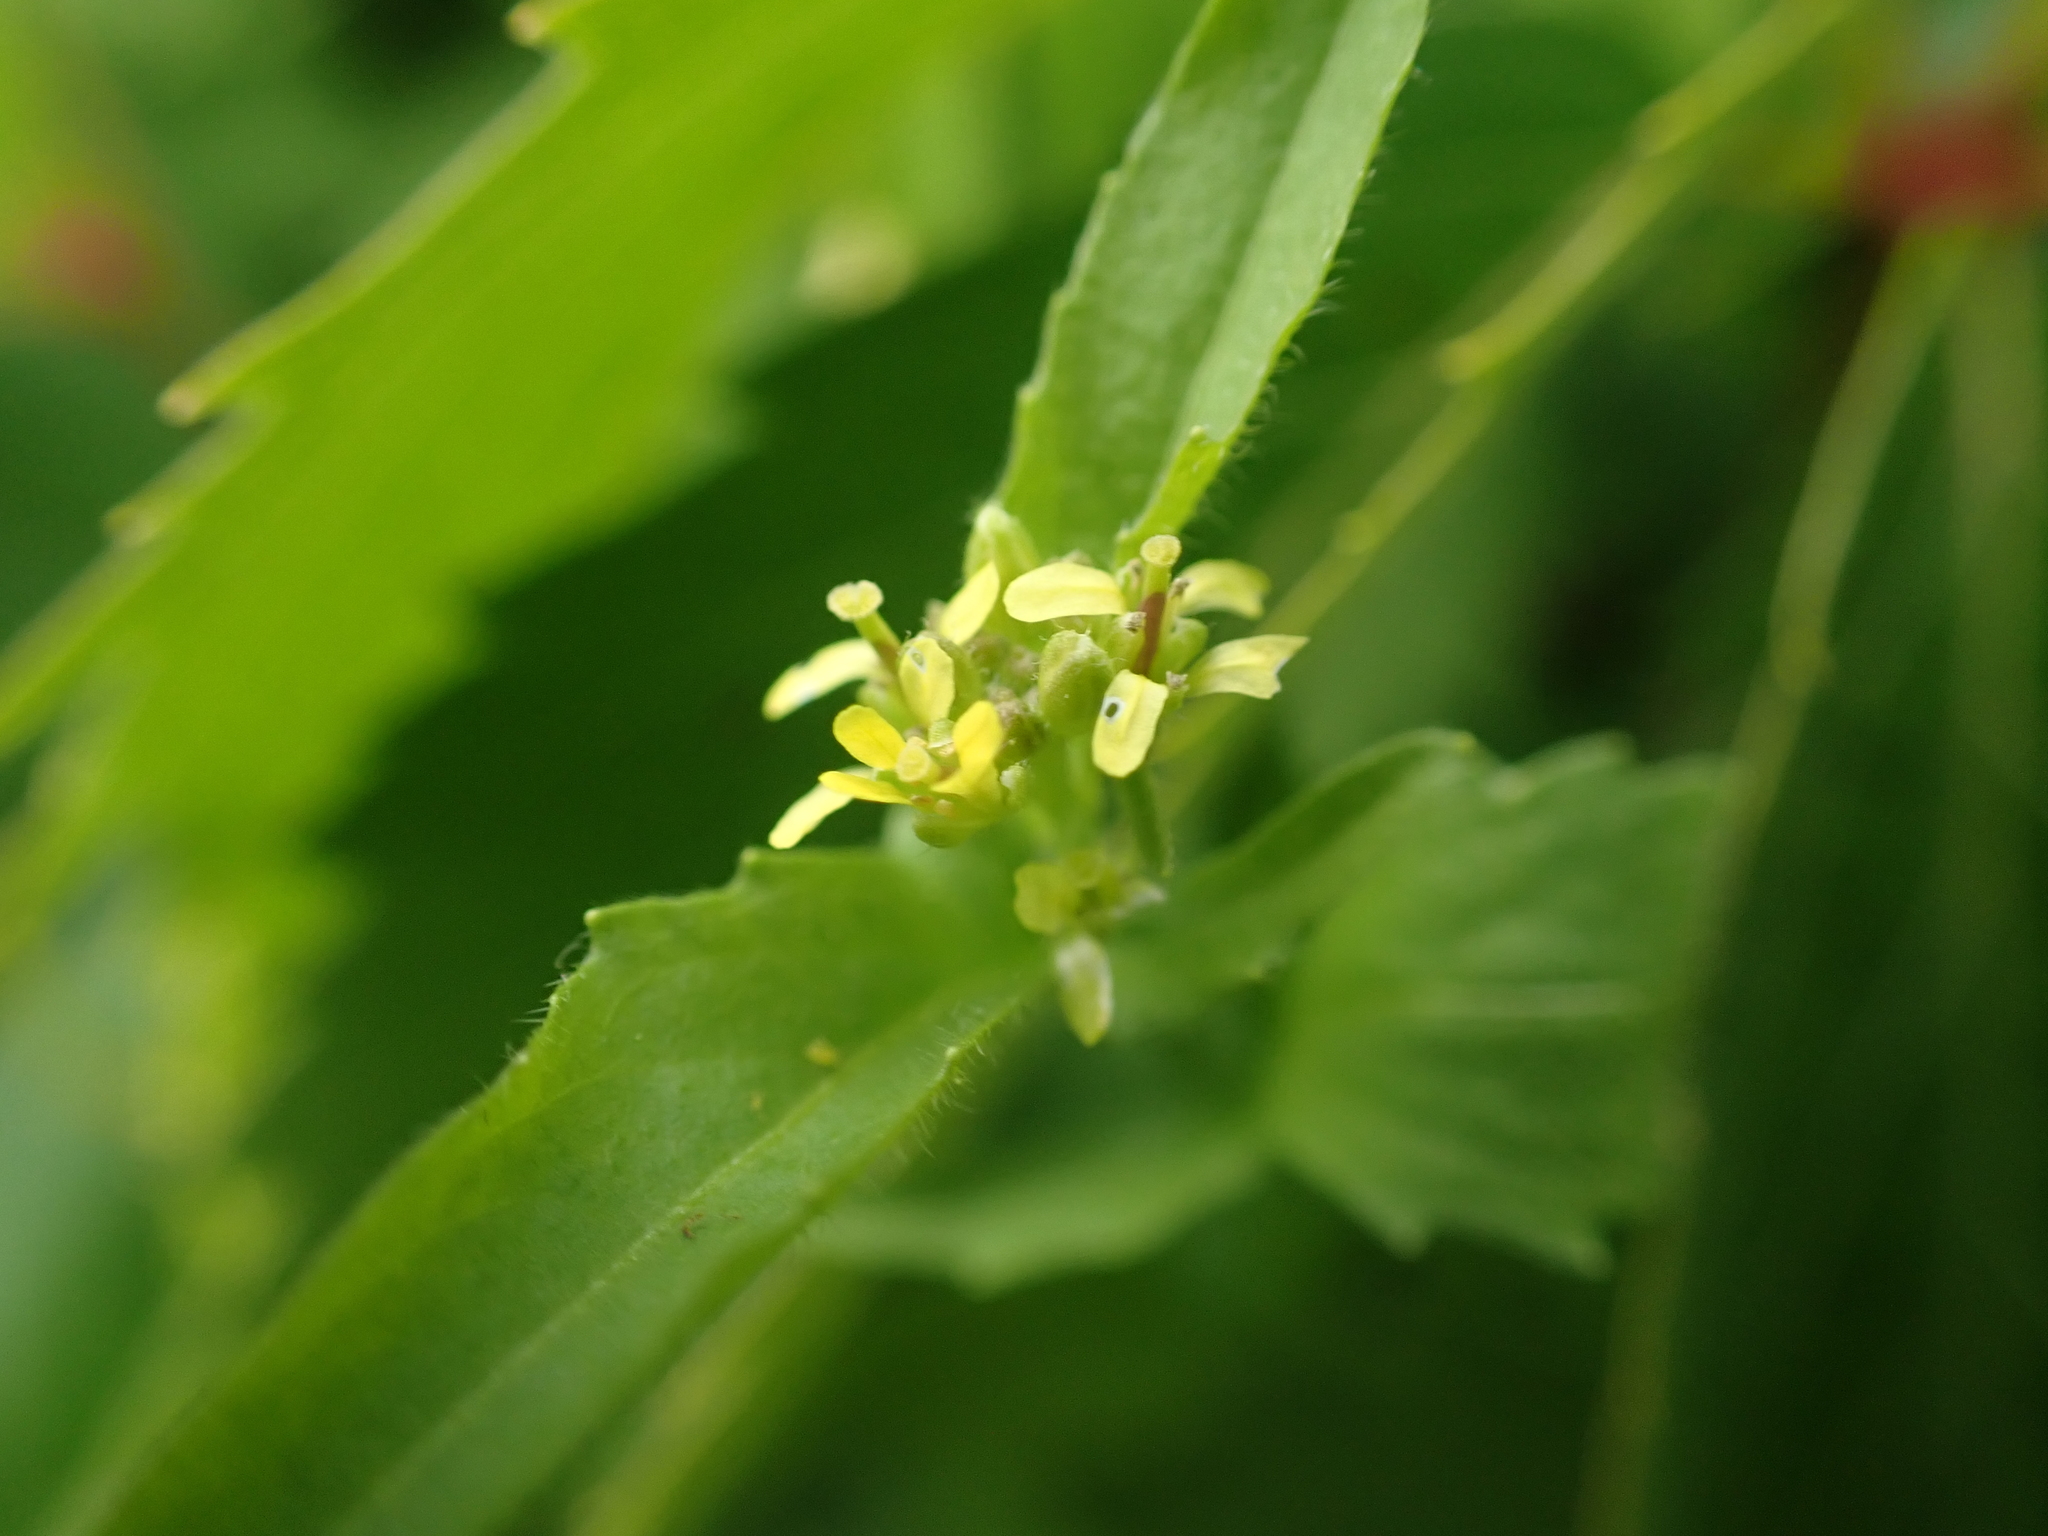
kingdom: Plantae
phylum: Tracheophyta
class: Magnoliopsida
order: Brassicales
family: Brassicaceae
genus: Sisymbrium
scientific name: Sisymbrium officinale
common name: Hedge mustard
